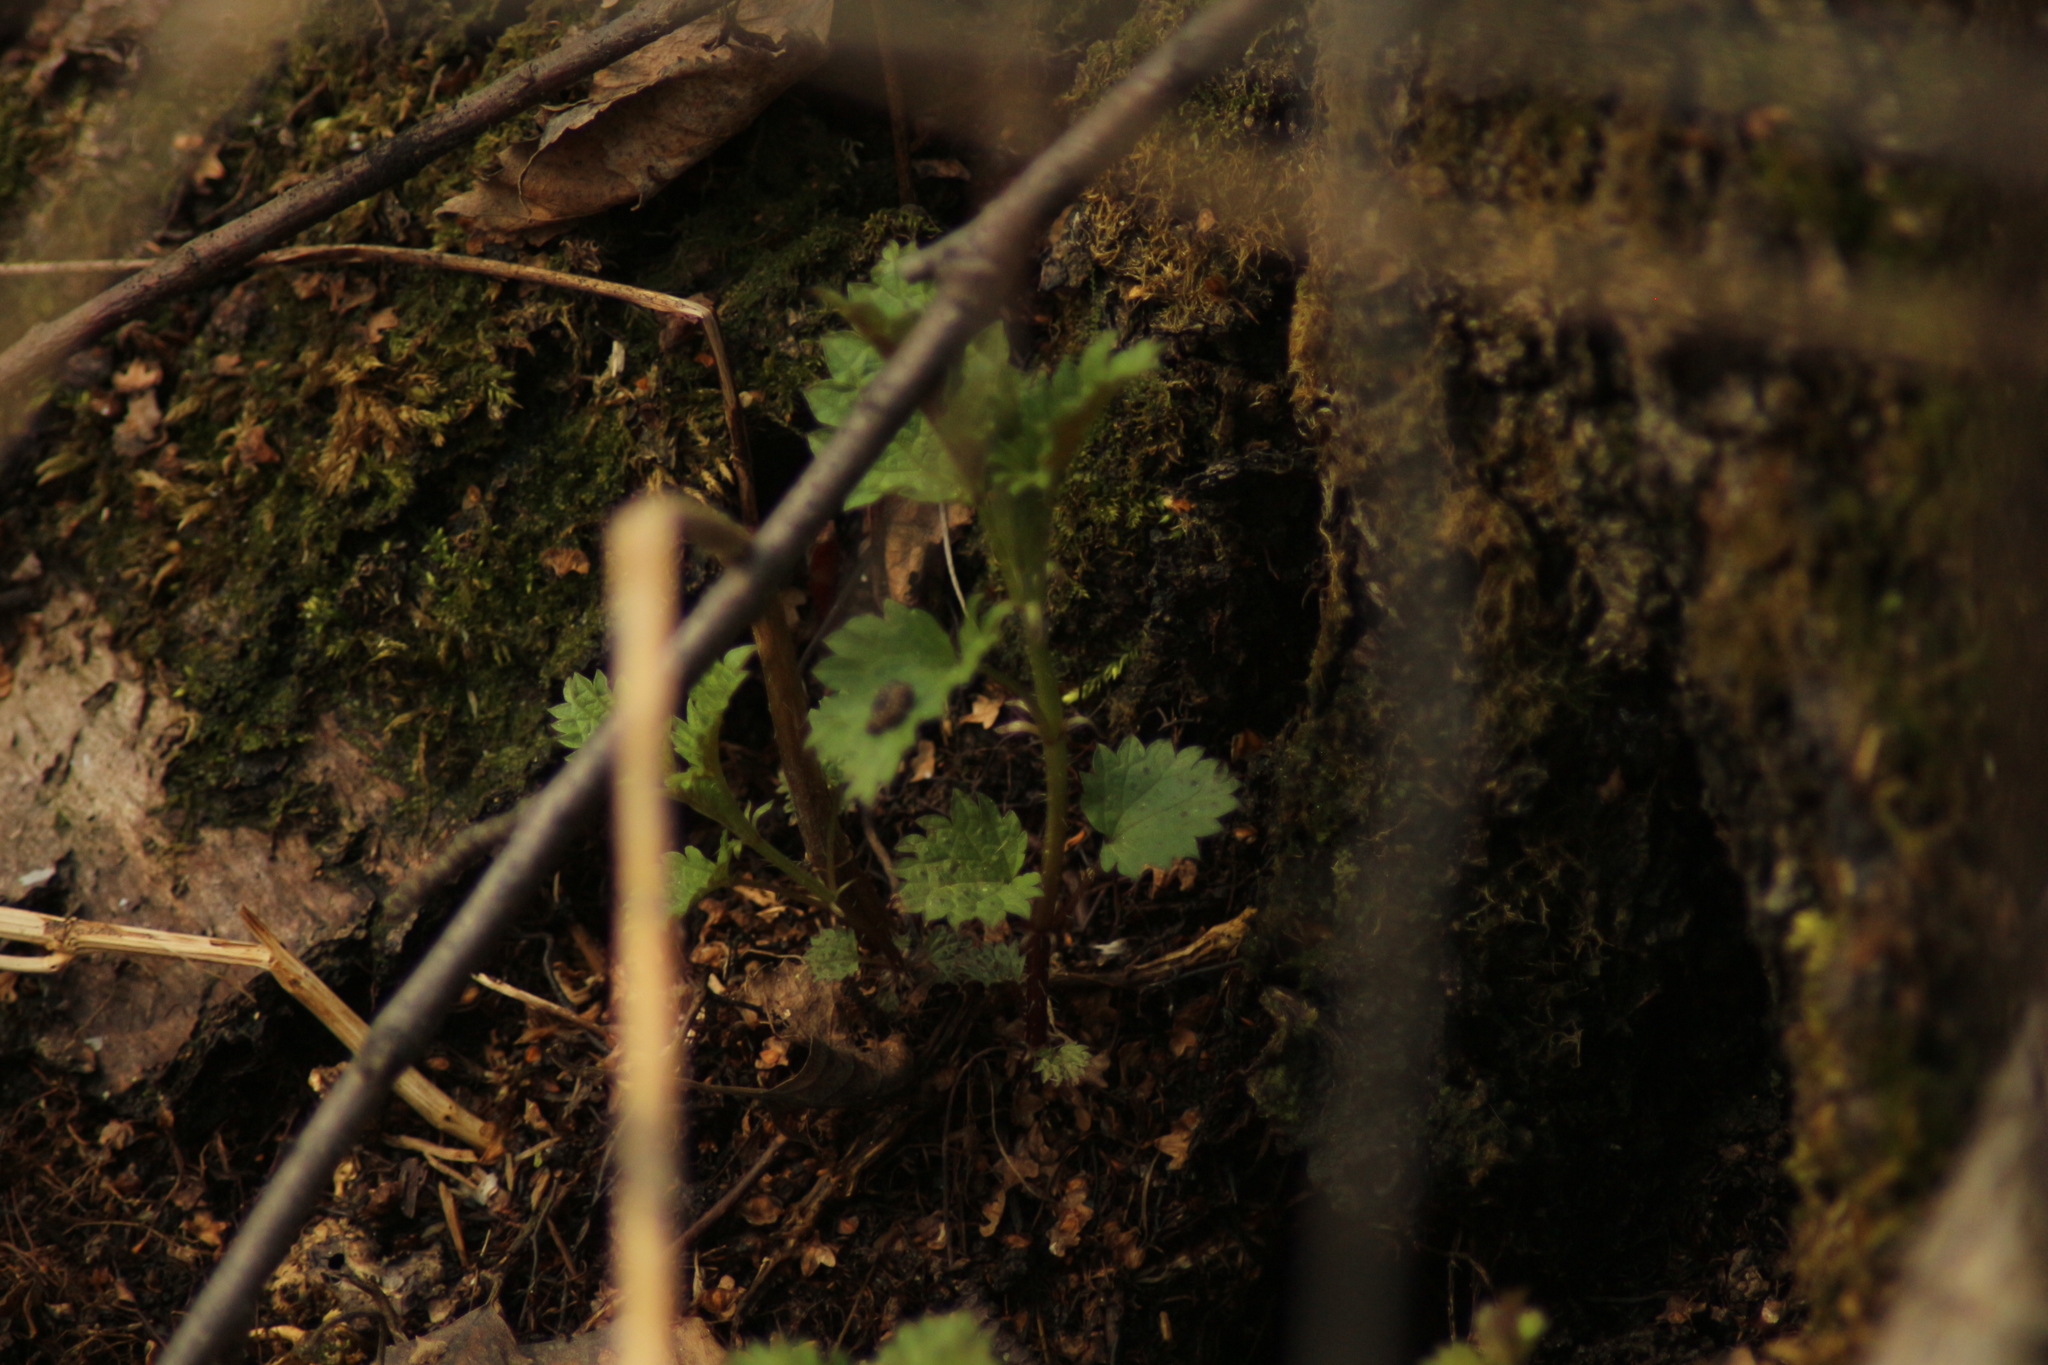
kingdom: Plantae
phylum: Tracheophyta
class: Magnoliopsida
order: Rosales
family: Urticaceae
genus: Urtica
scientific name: Urtica dioica
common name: Common nettle
